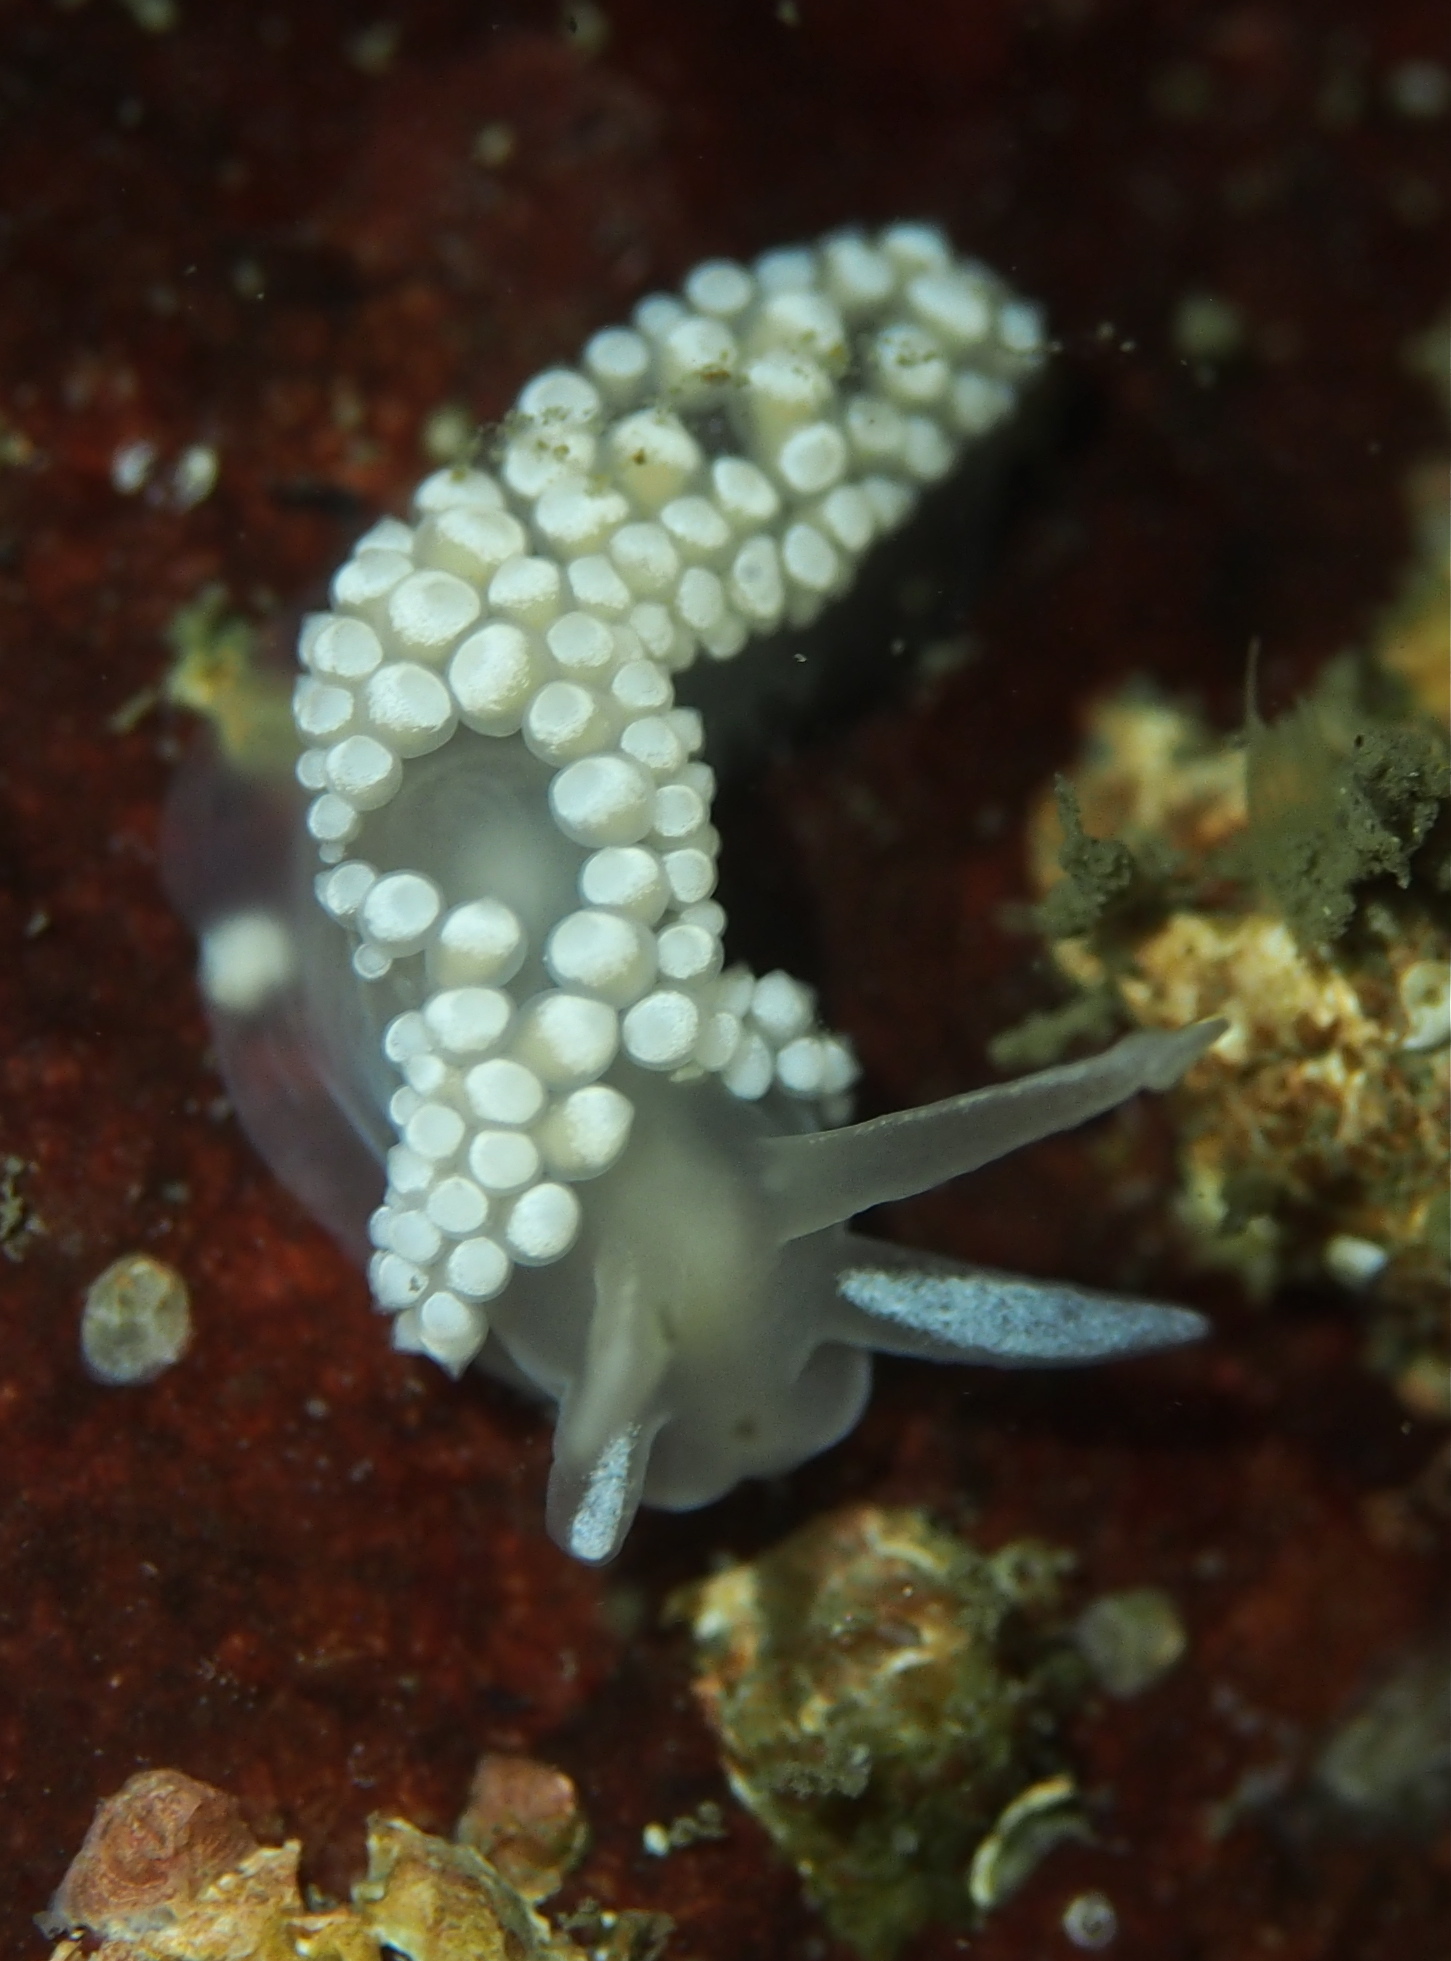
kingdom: Animalia
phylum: Mollusca
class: Gastropoda
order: Nudibranchia
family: Coryphellidae
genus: Coryphella
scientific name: Coryphella verrucosa
